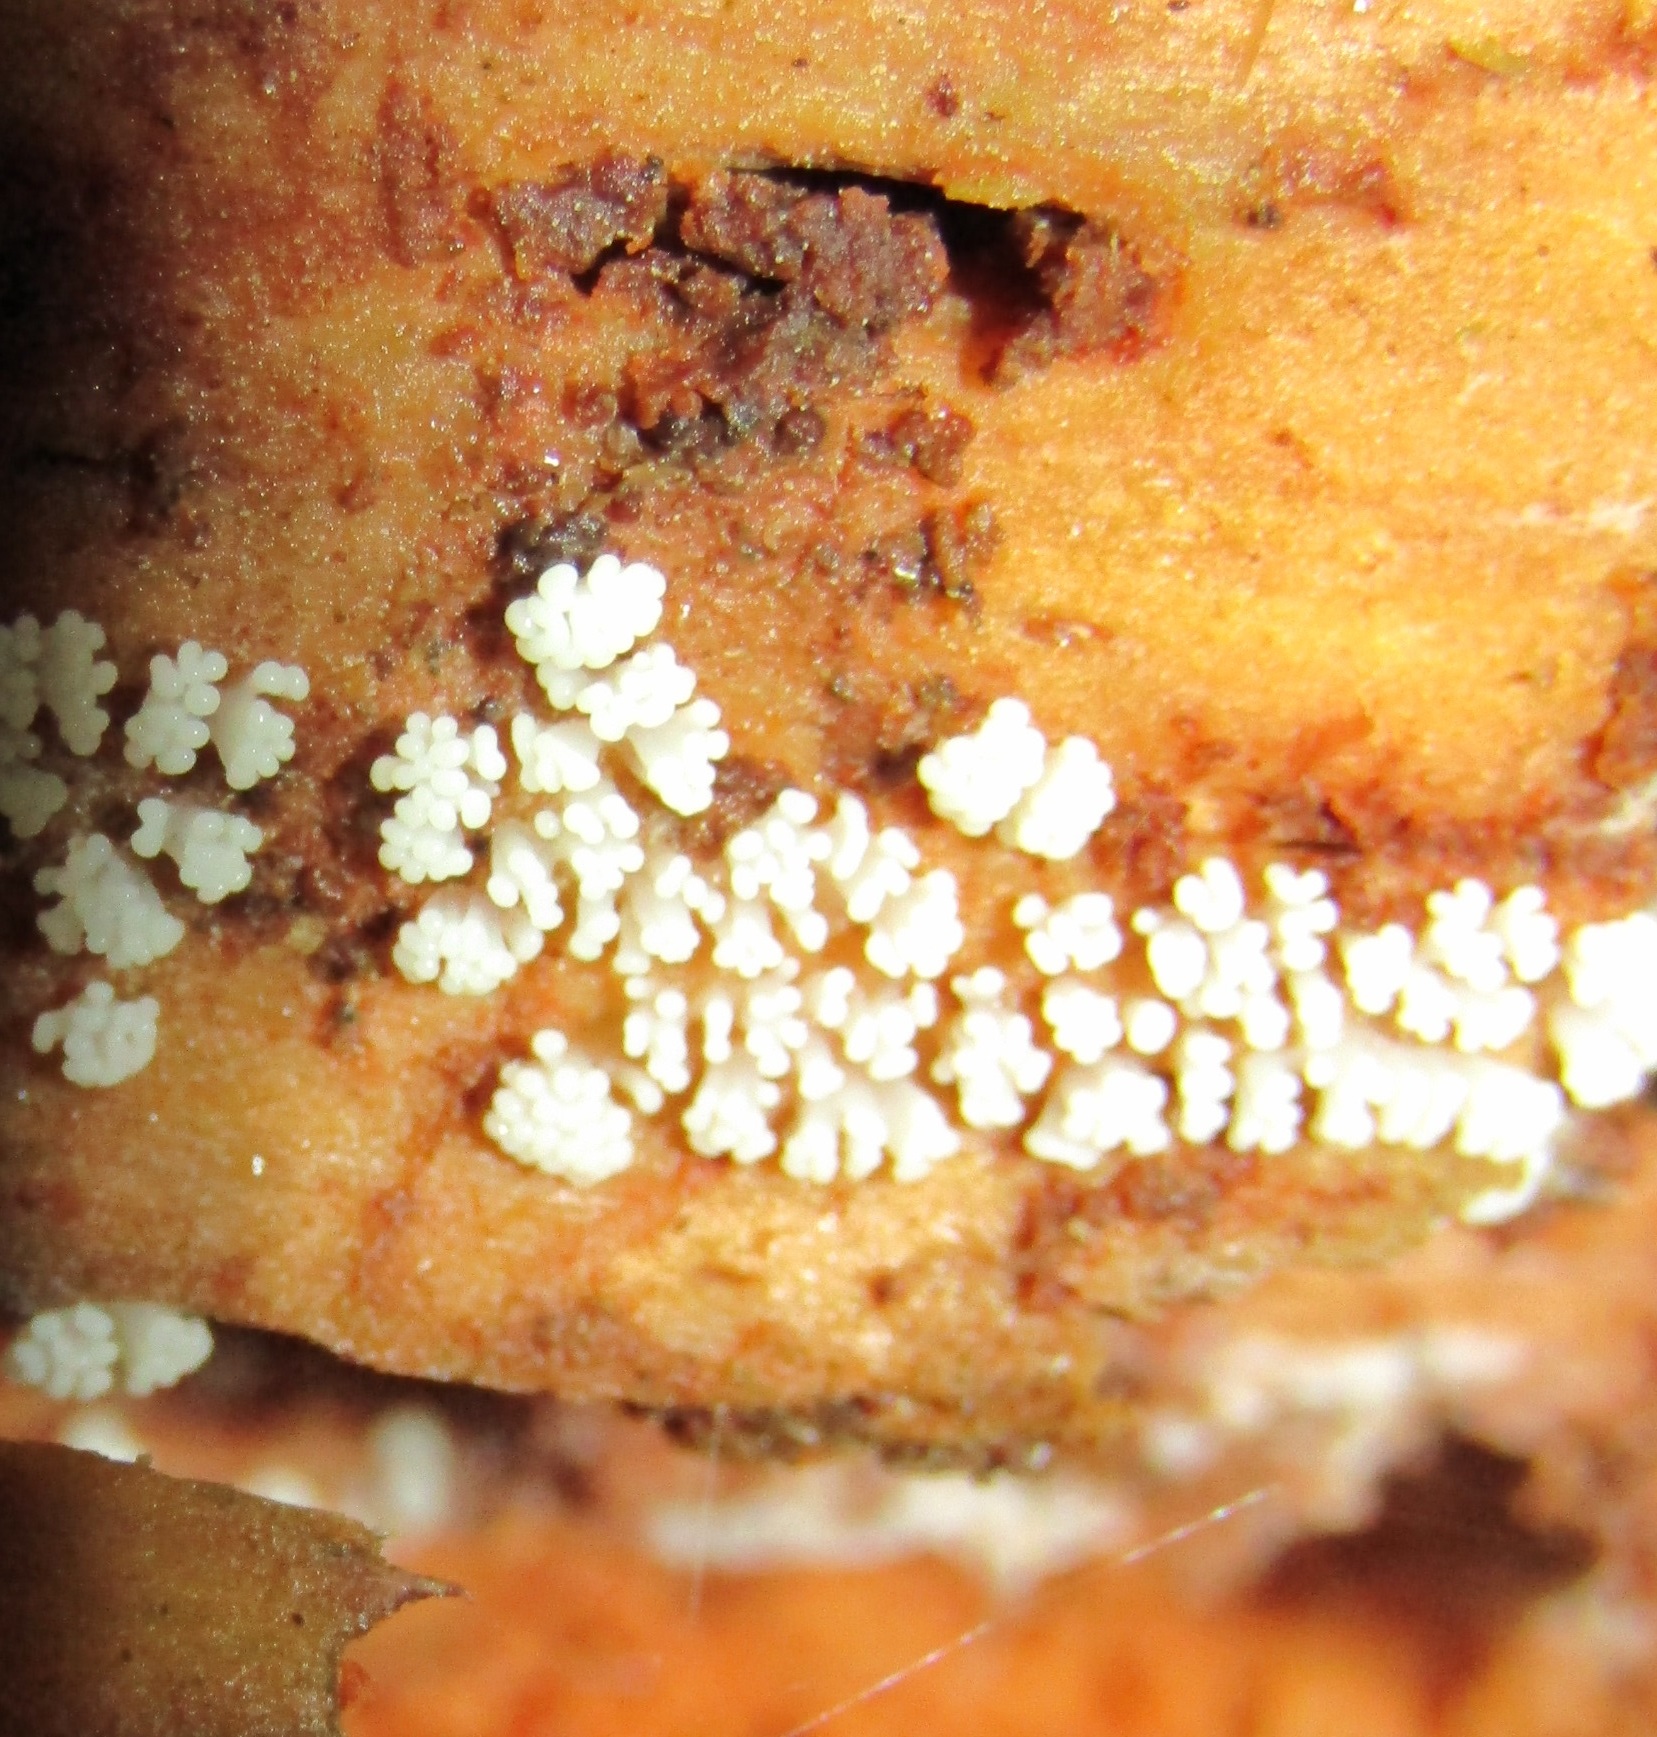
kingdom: Protozoa
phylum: Mycetozoa
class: Protosteliomycetes
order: Ceratiomyxales
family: Ceratiomyxaceae
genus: Ceratiomyxa
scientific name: Ceratiomyxa fruticulosa
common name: Honeycomb coral slime mold
